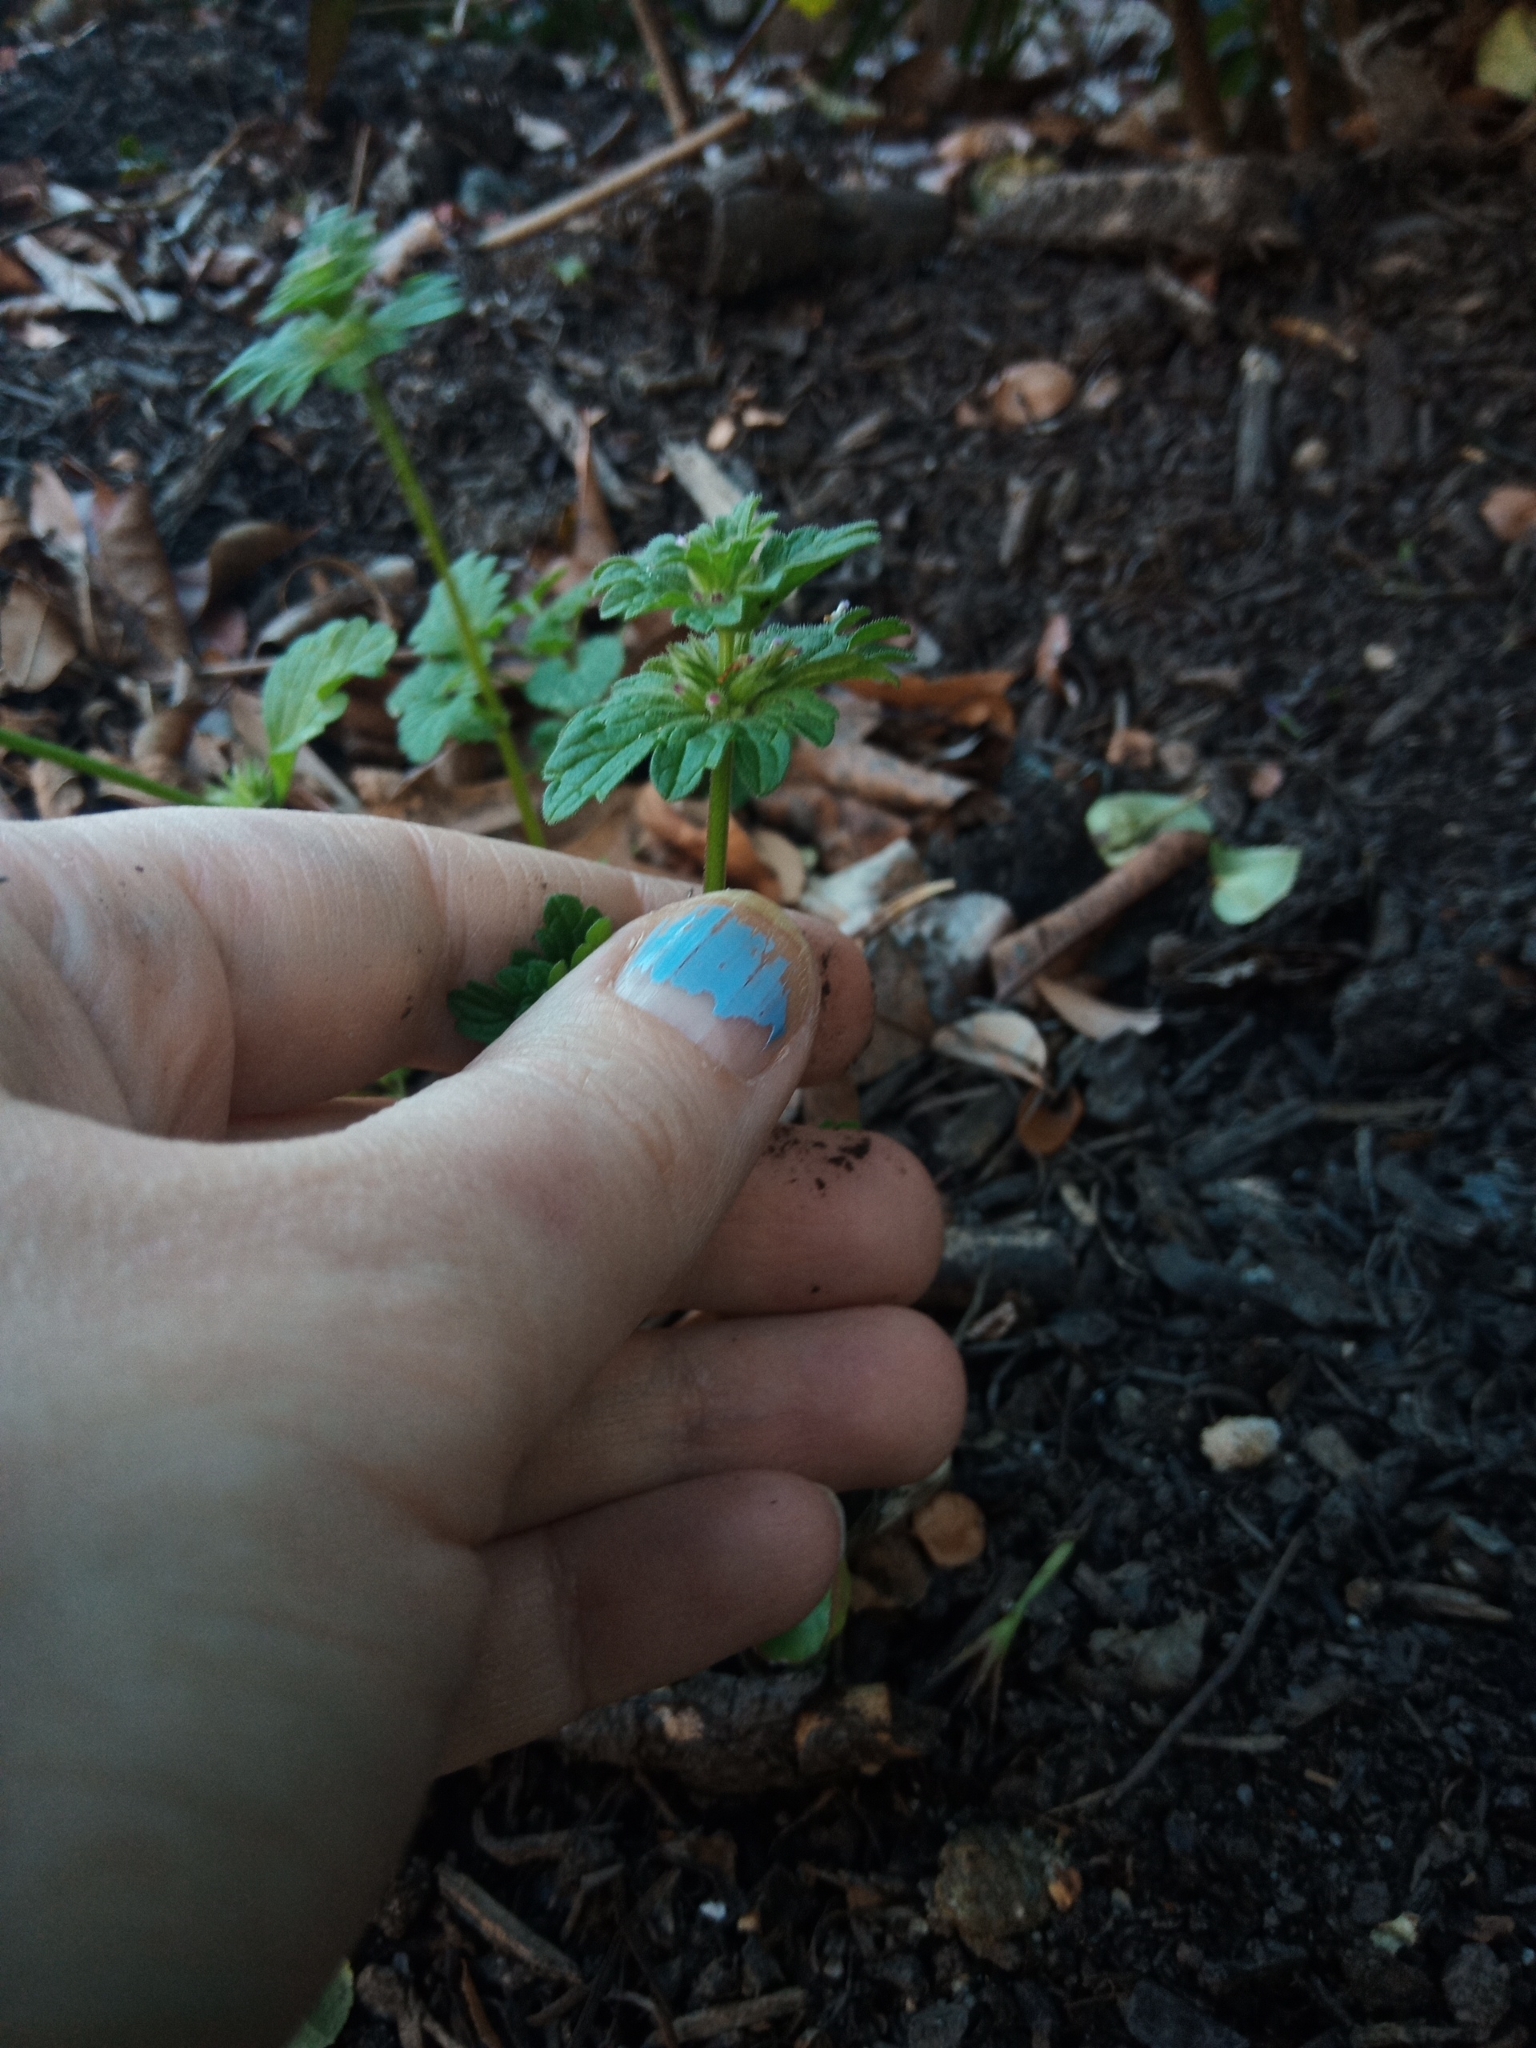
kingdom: Plantae
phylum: Tracheophyta
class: Magnoliopsida
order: Lamiales
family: Lamiaceae
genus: Lamium
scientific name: Lamium amplexicaule
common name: Henbit dead-nettle
